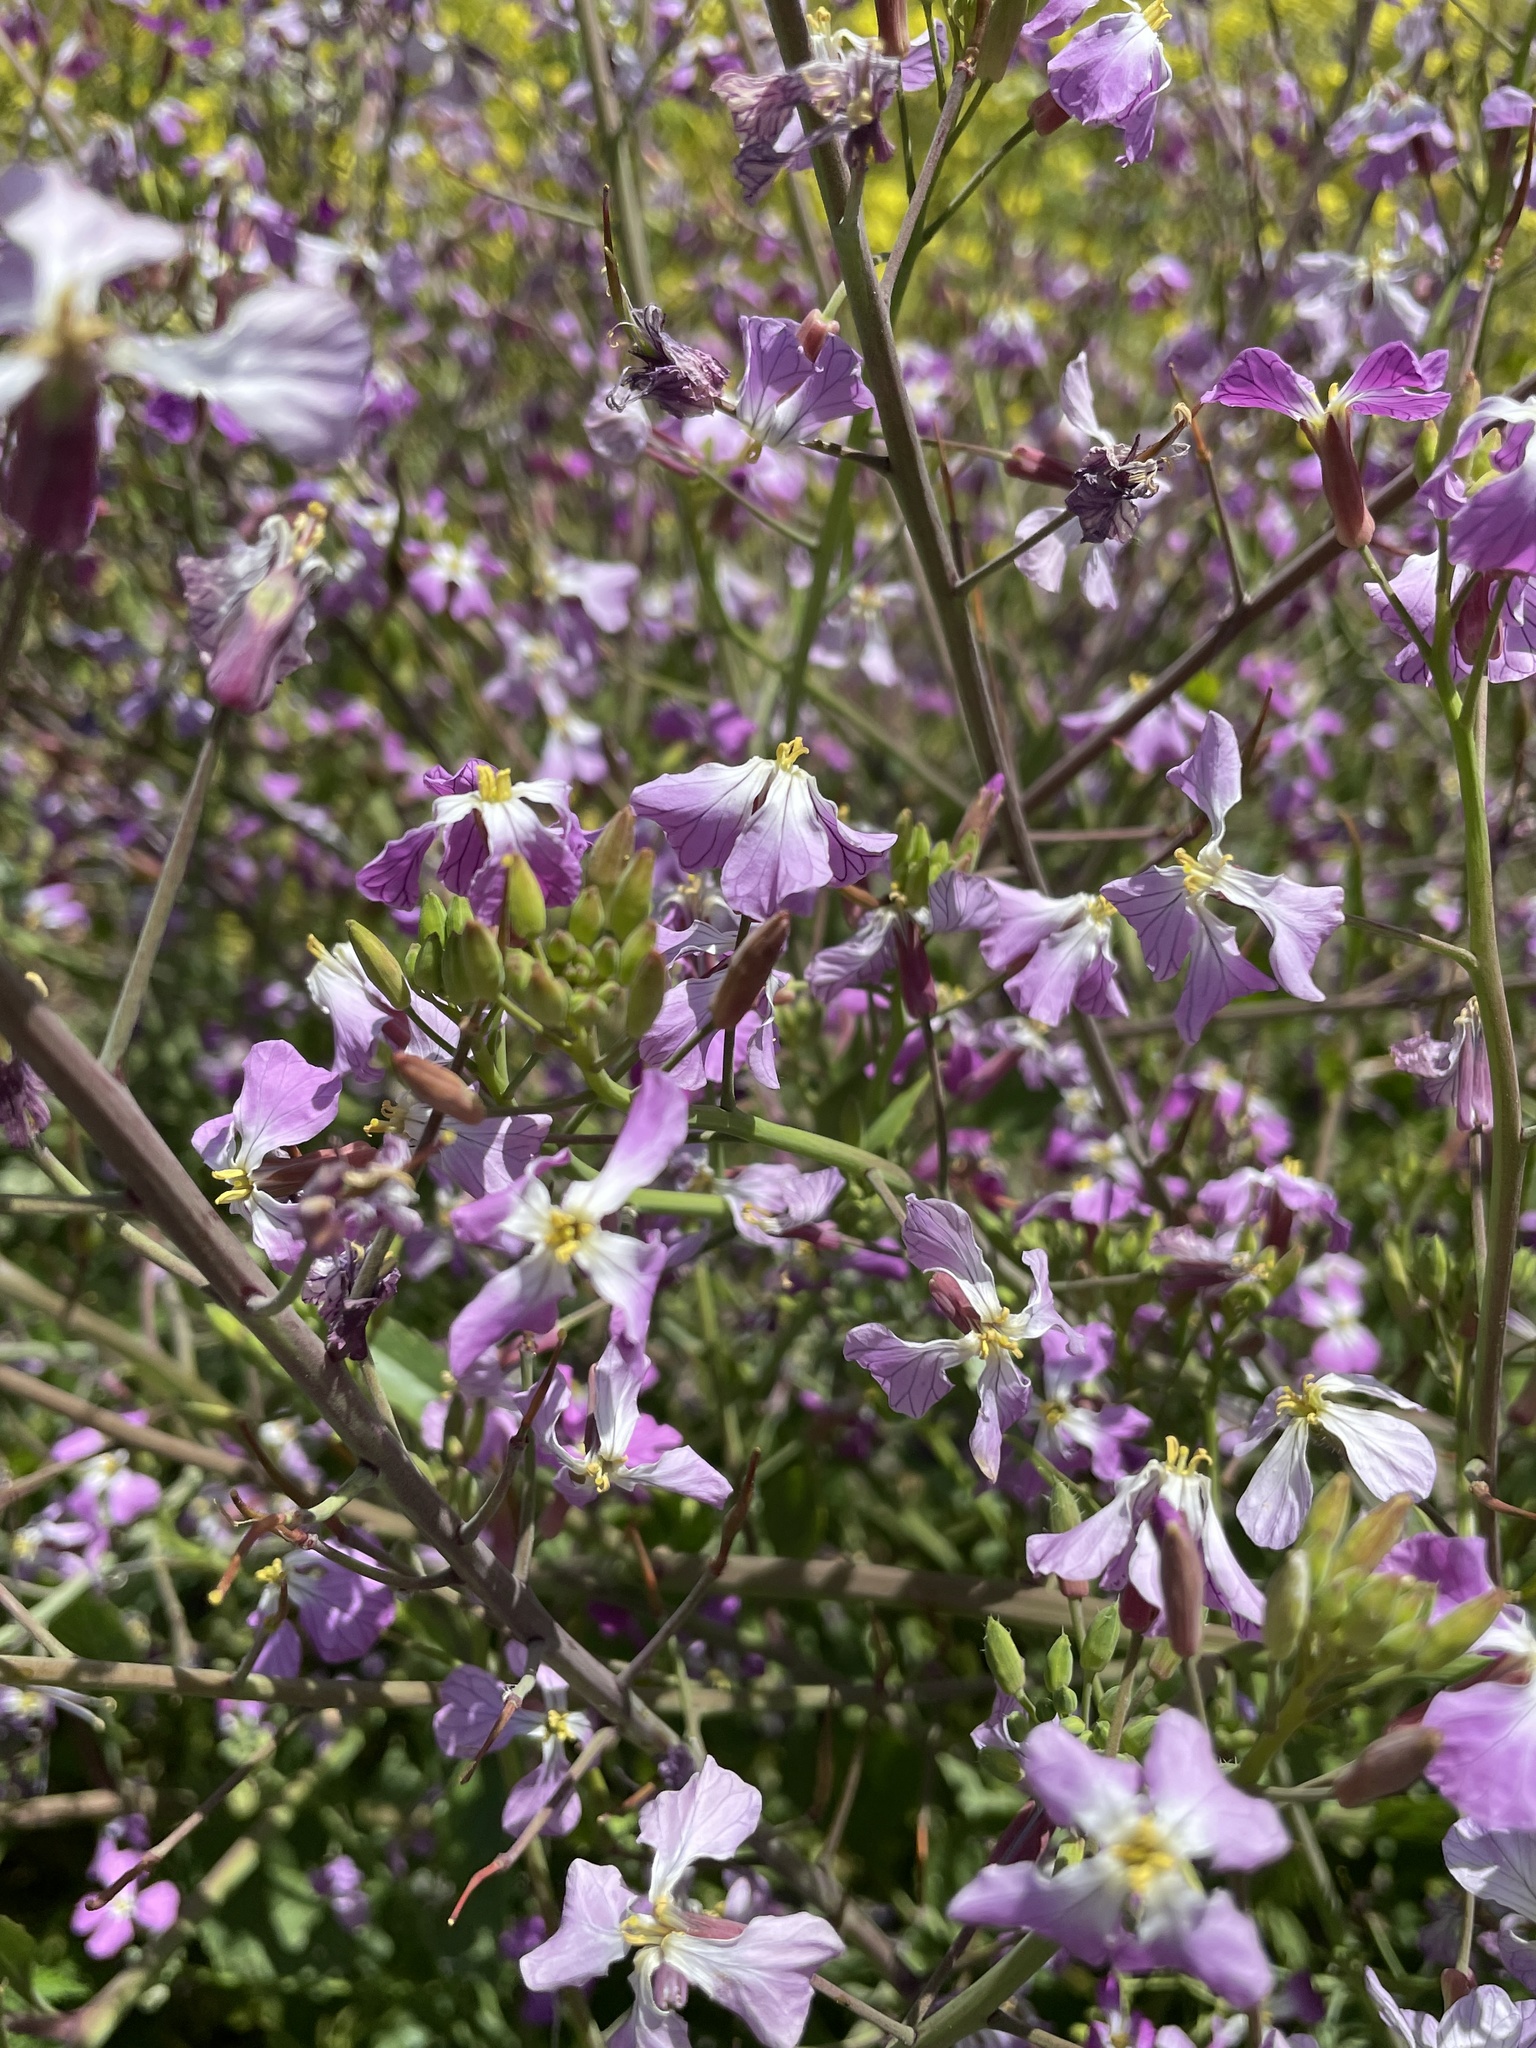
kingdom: Plantae
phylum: Tracheophyta
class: Magnoliopsida
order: Brassicales
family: Brassicaceae
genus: Raphanus
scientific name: Raphanus sativus
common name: Cultivated radish
